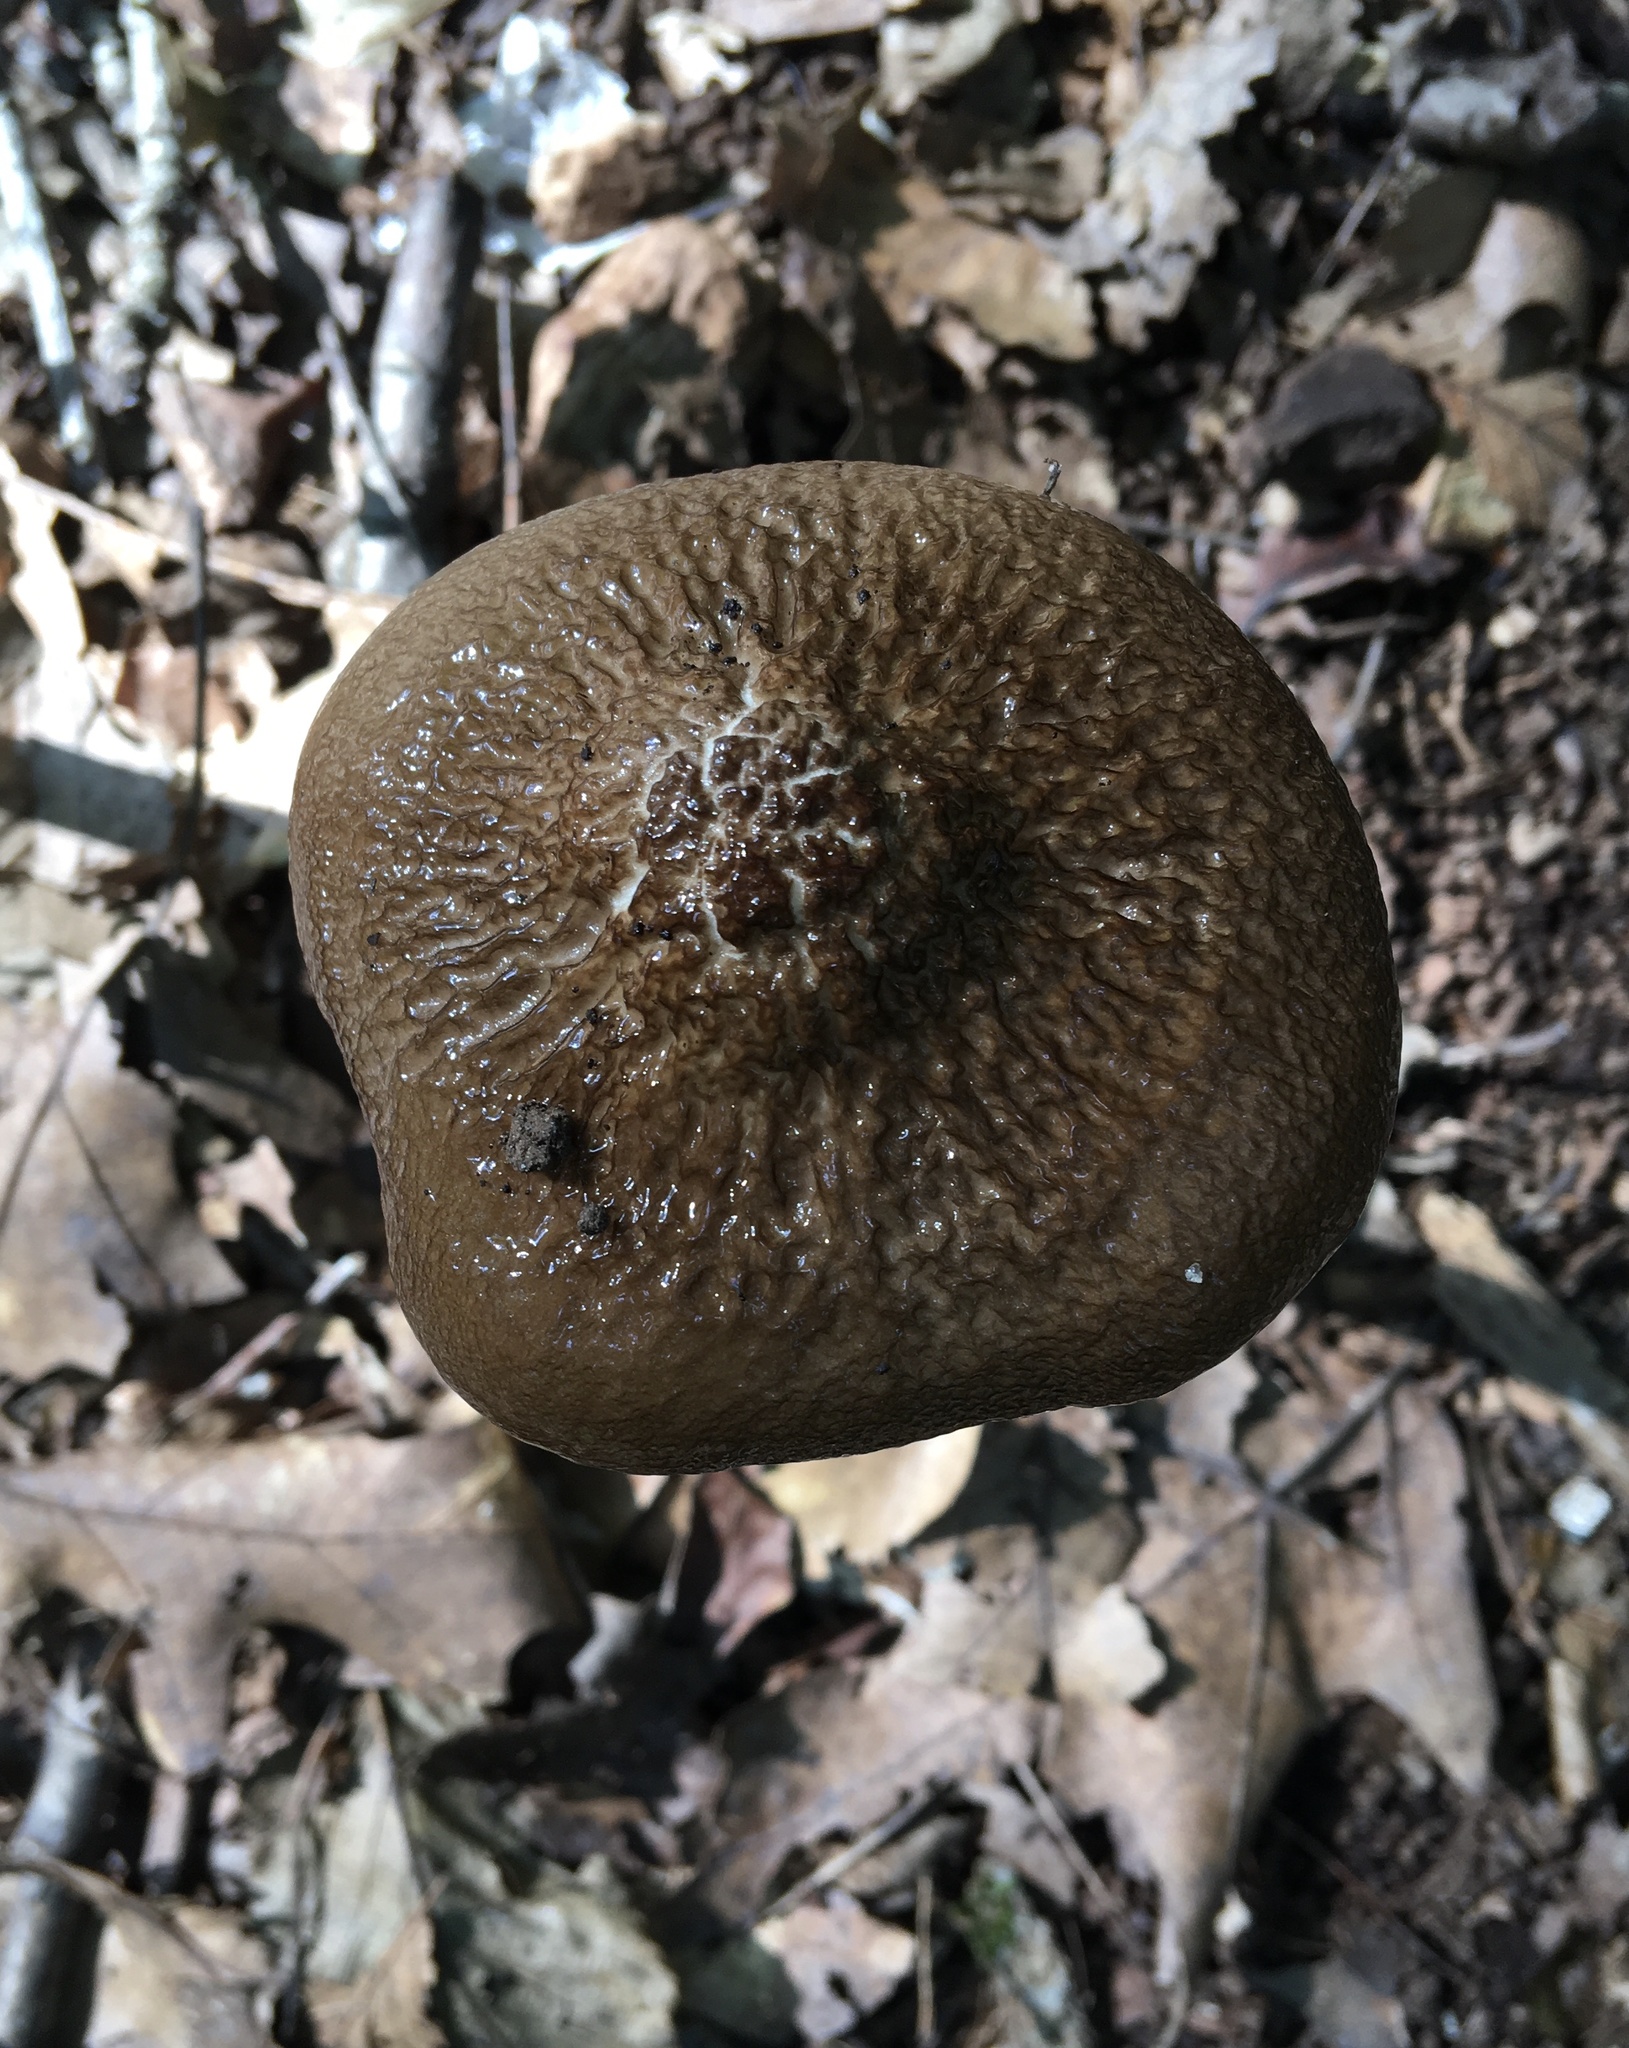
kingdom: Fungi
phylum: Basidiomycota
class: Agaricomycetes
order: Agaricales
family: Physalacriaceae
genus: Hymenopellis
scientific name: Hymenopellis furfuracea
